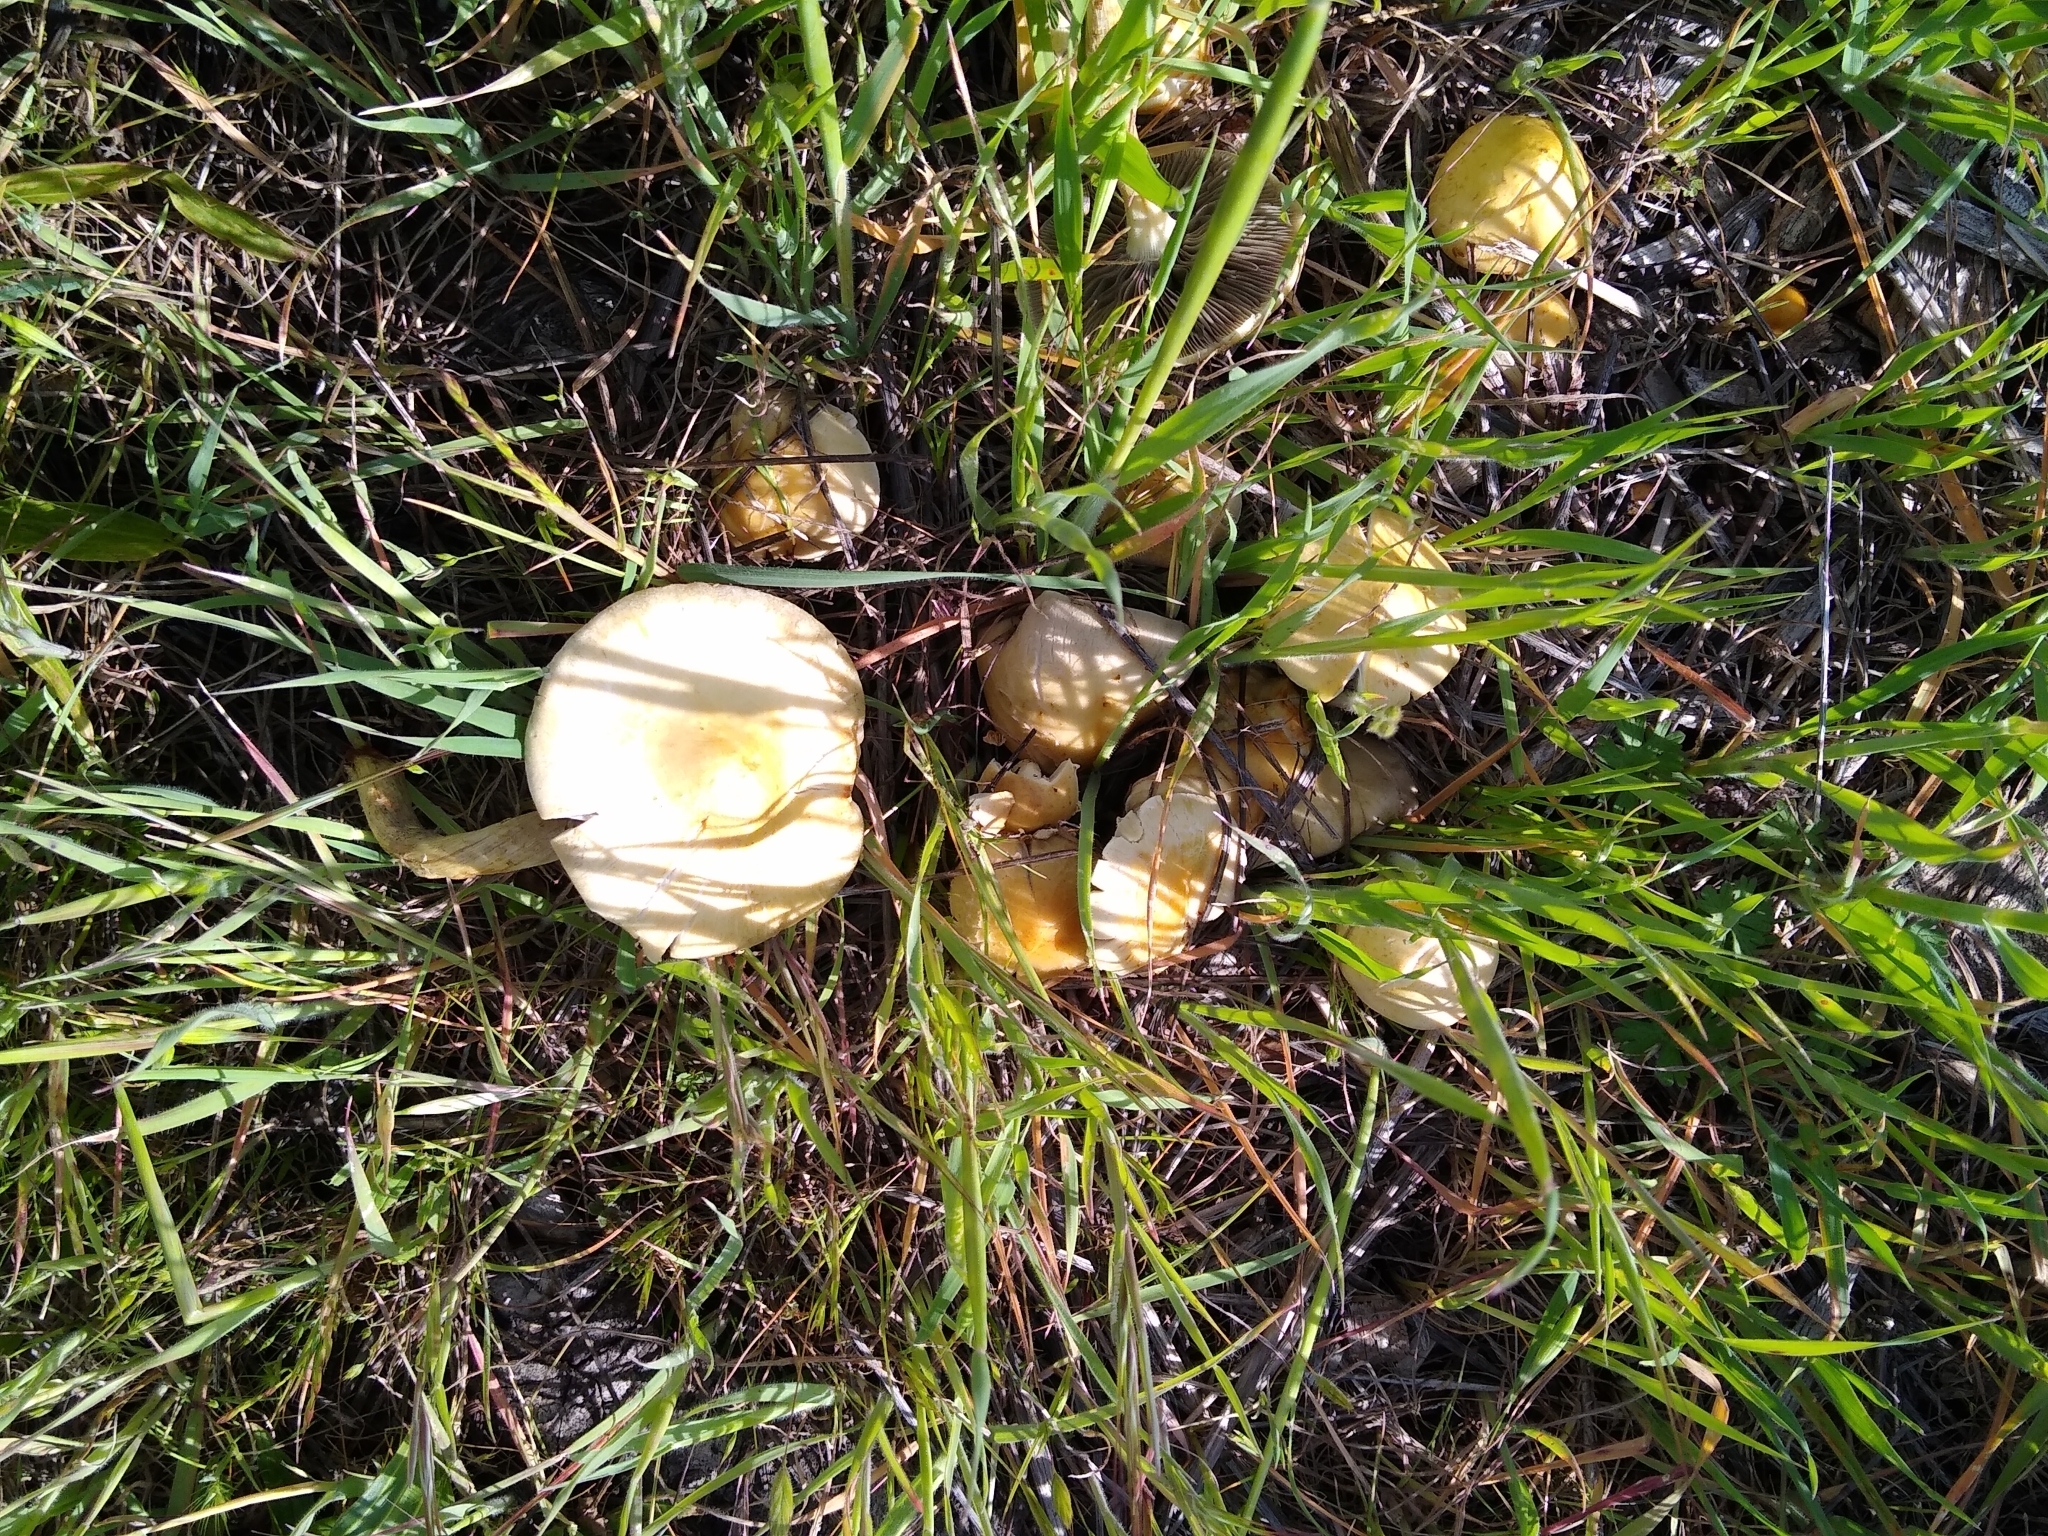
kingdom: Fungi
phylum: Basidiomycota
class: Agaricomycetes
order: Agaricales
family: Strophariaceae
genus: Leratiomyces
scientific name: Leratiomyces percevalii
